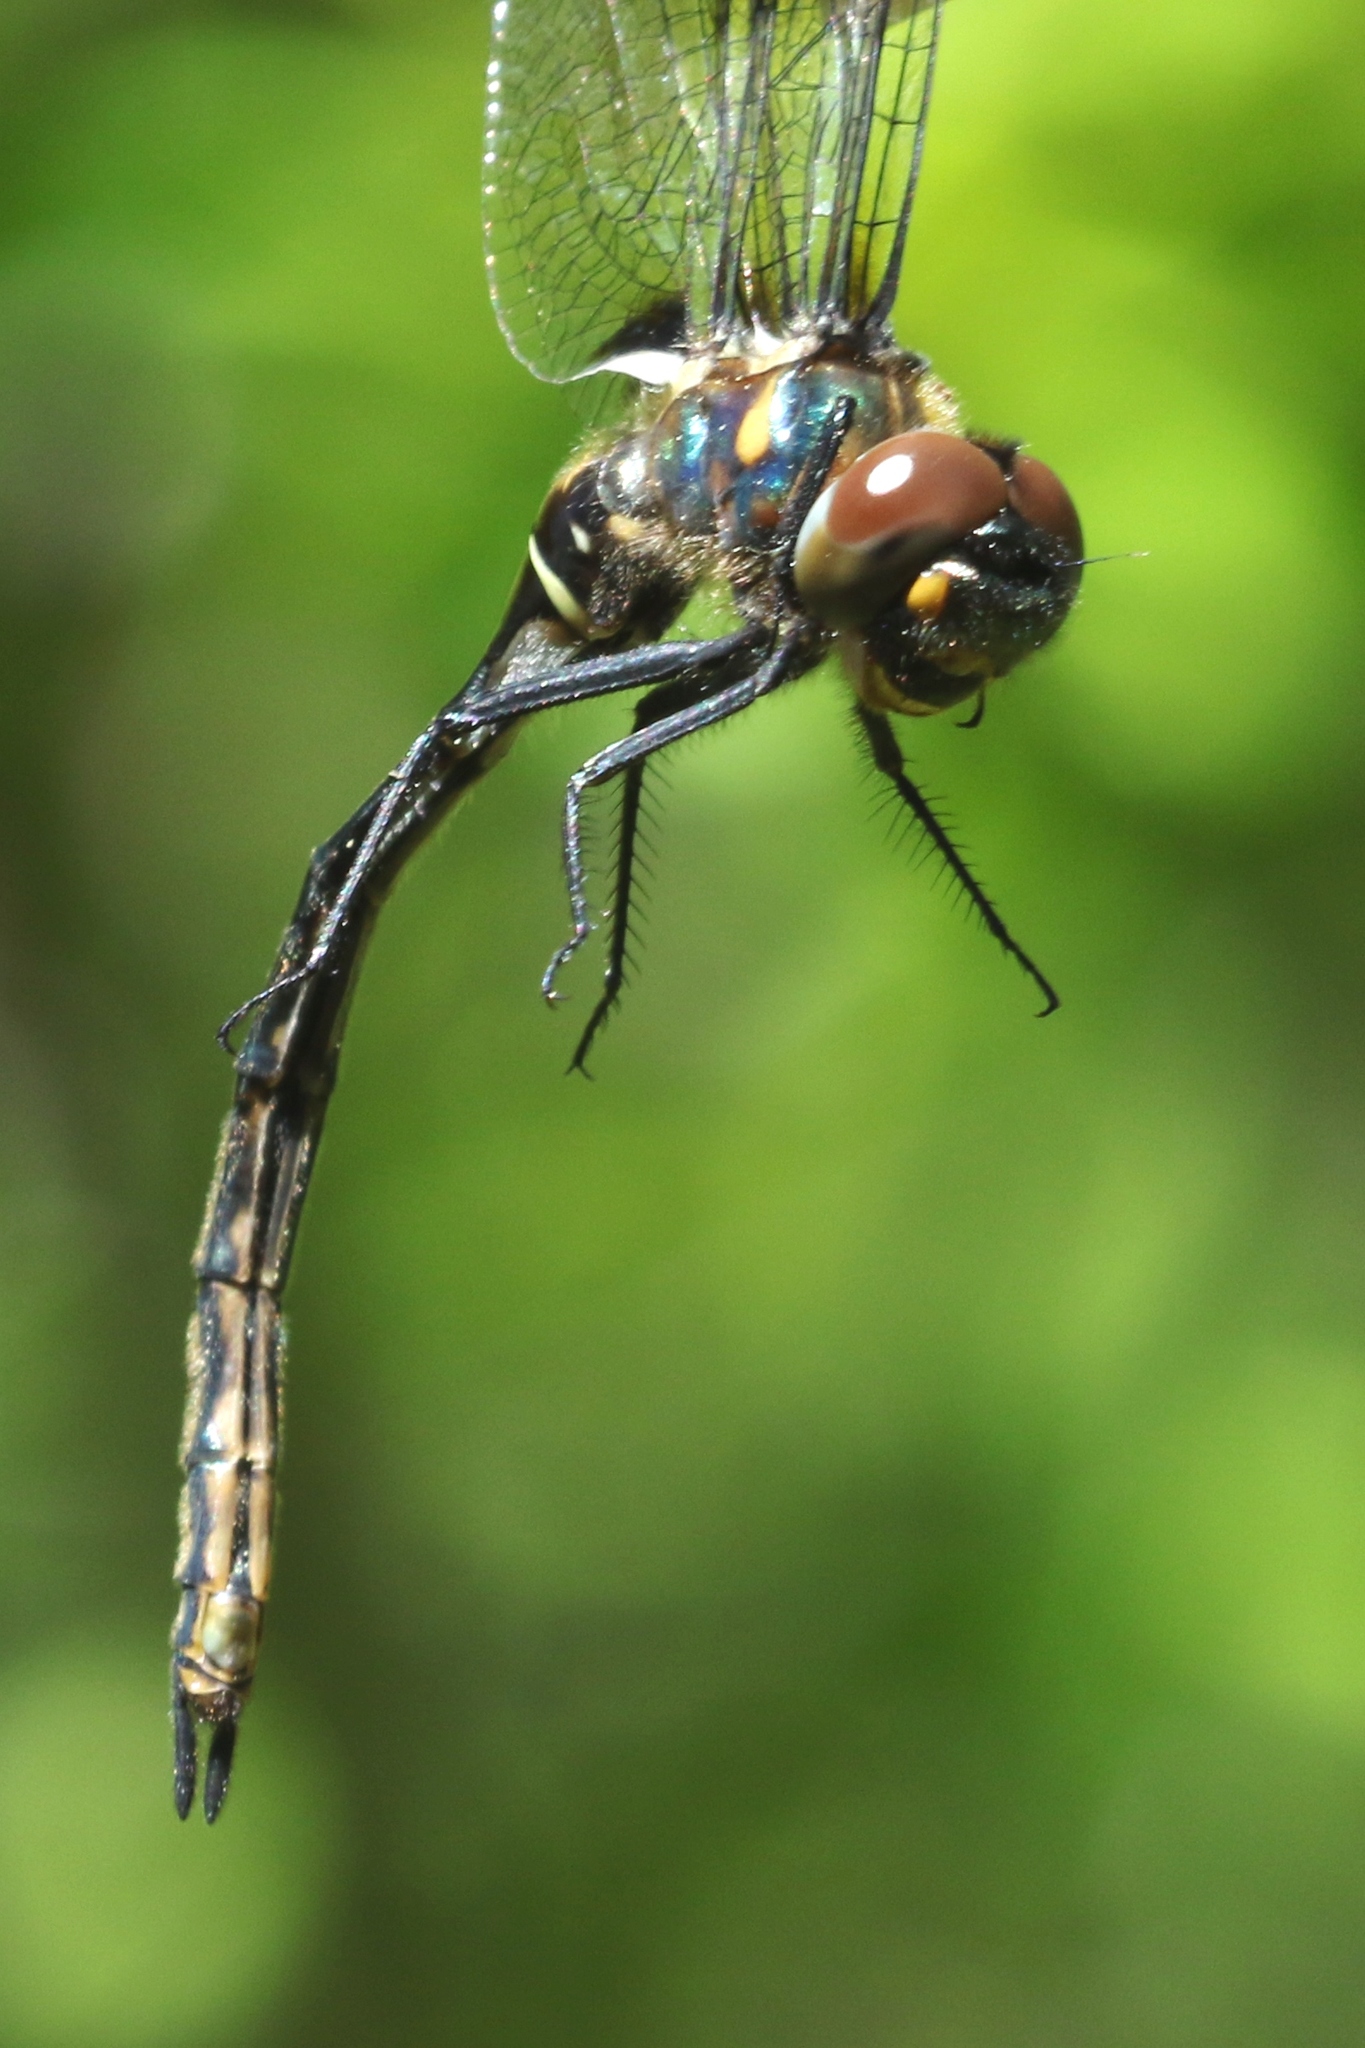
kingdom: Animalia
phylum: Arthropoda
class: Insecta
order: Odonata
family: Corduliidae
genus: Somatochlora
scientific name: Somatochlora franklini
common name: Delicate emerald
